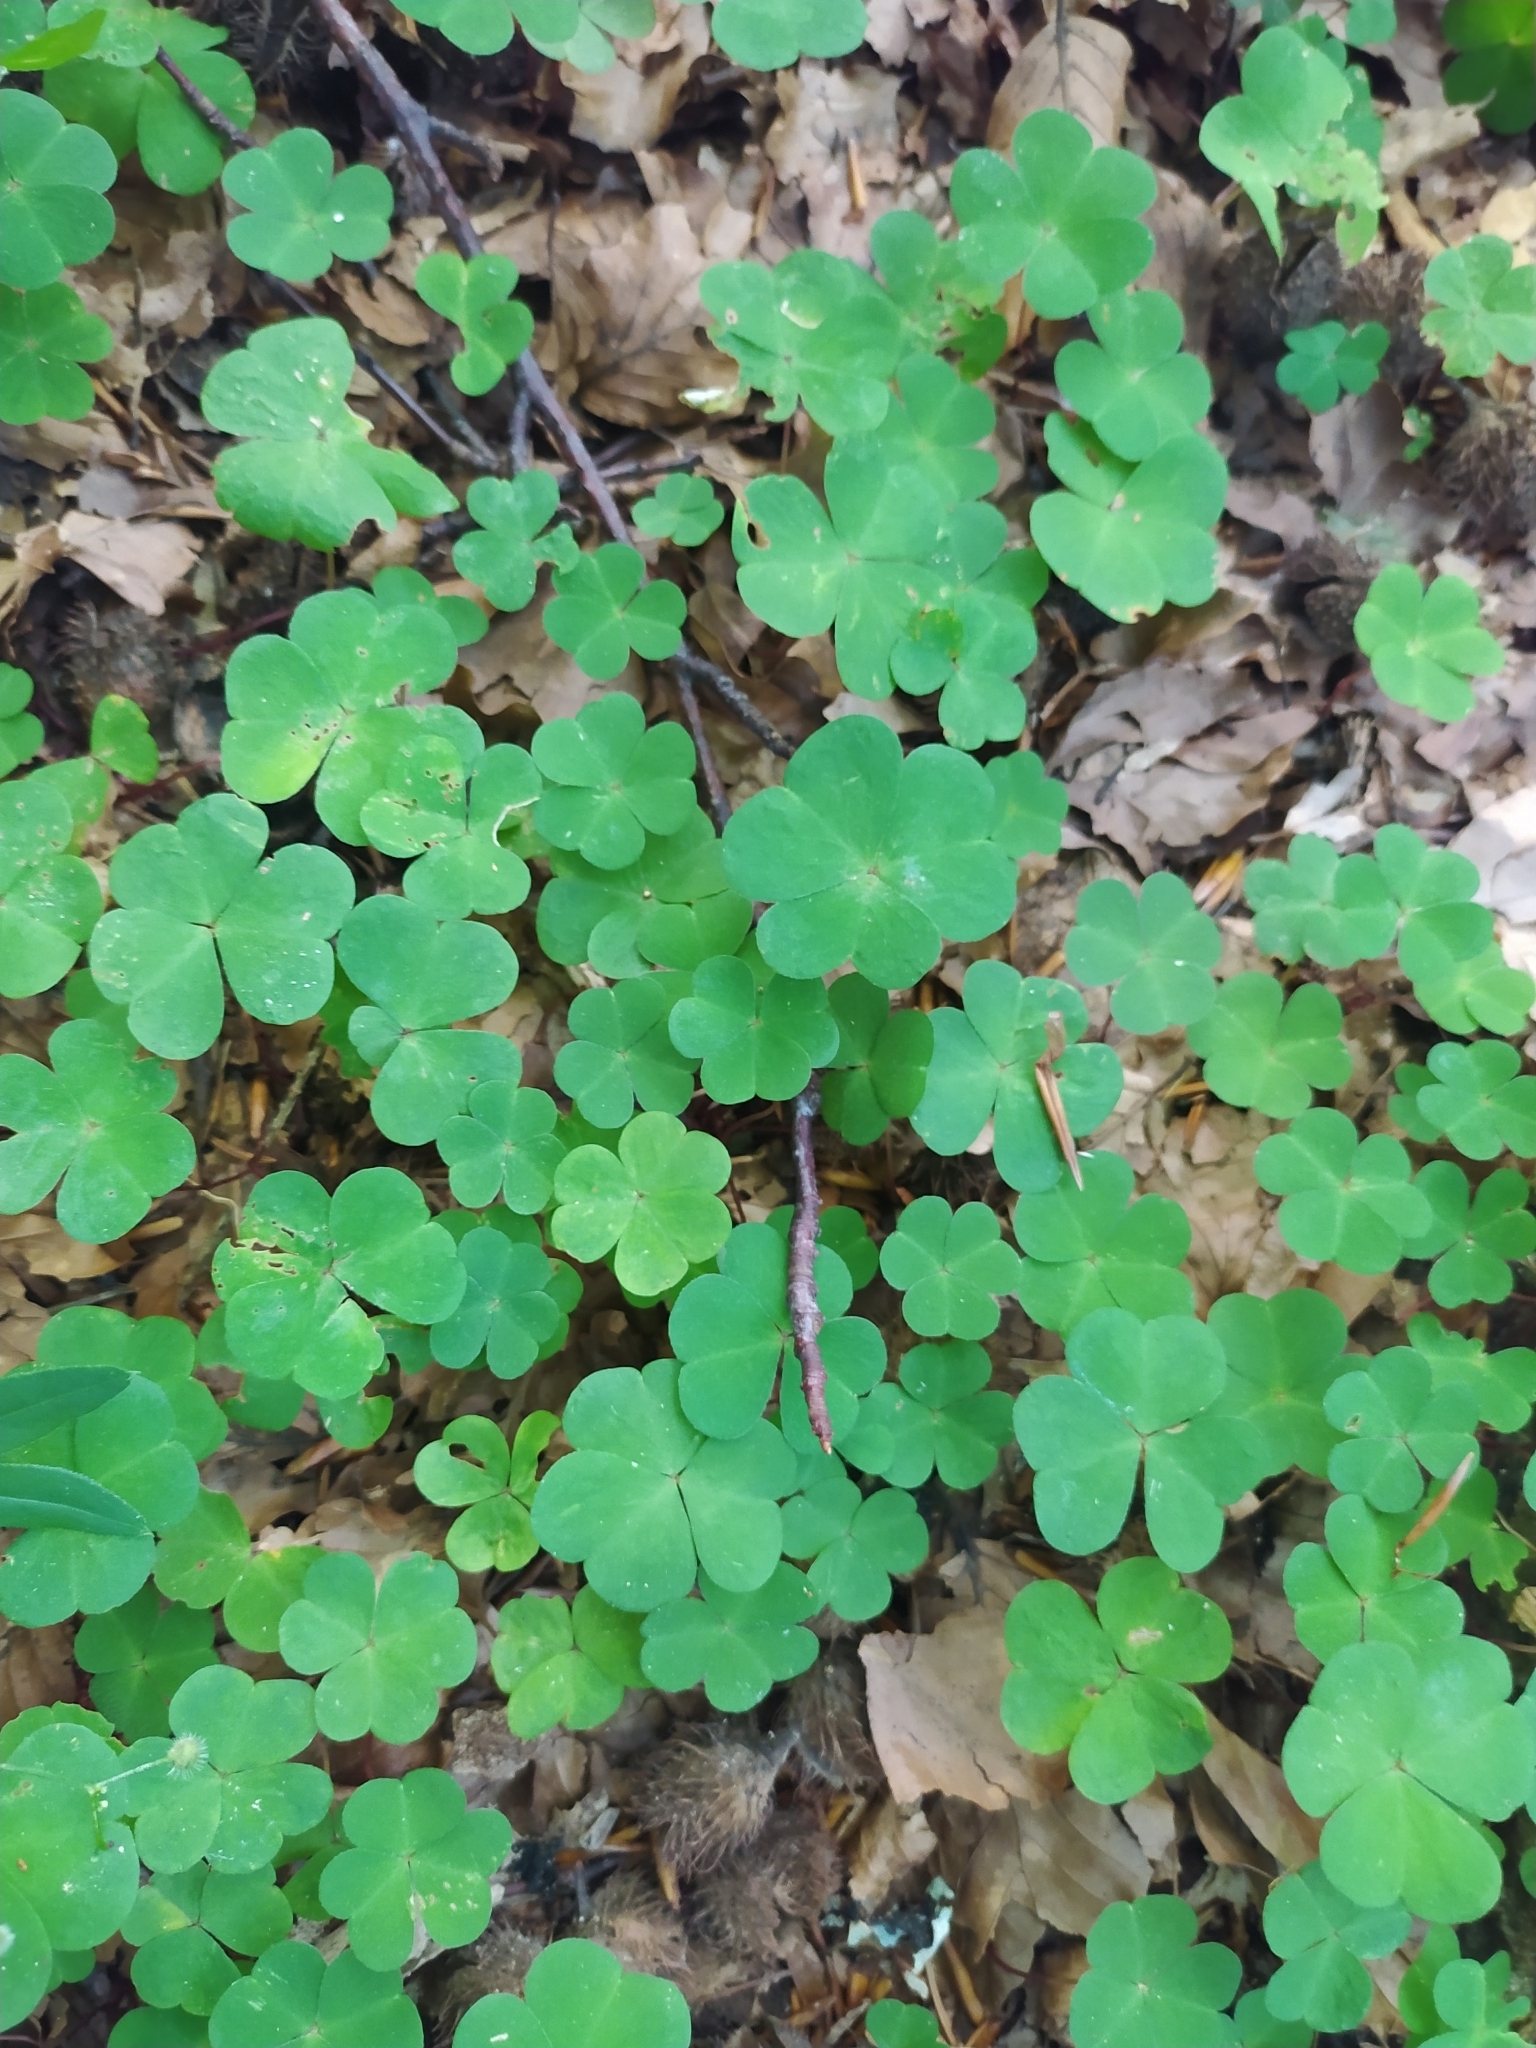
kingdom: Plantae
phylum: Tracheophyta
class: Magnoliopsida
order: Oxalidales
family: Oxalidaceae
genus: Oxalis
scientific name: Oxalis acetosella
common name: Wood-sorrel
